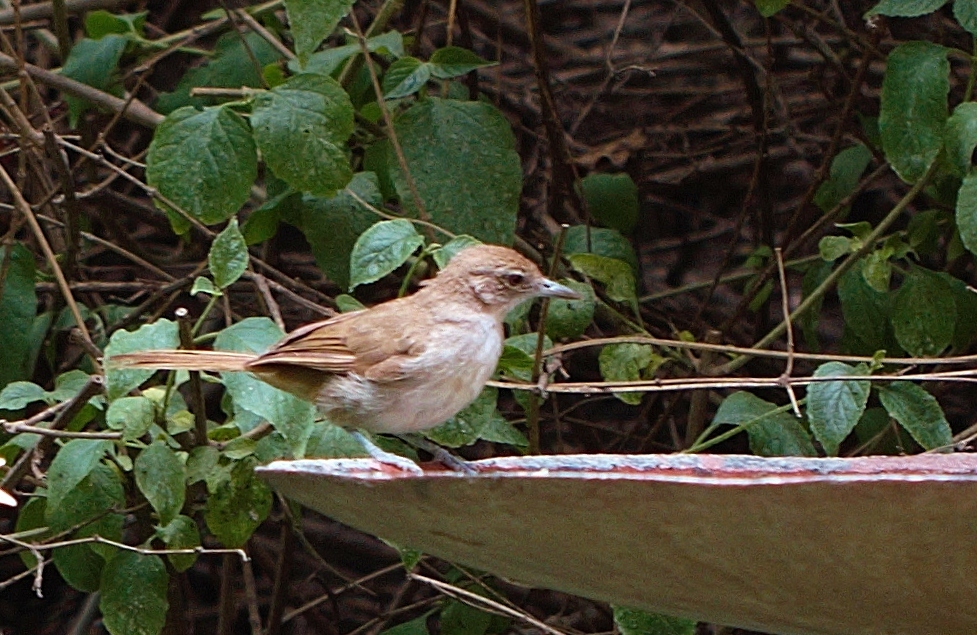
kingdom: Animalia
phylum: Chordata
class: Aves
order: Passeriformes
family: Pycnonotidae
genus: Phyllastrephus
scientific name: Phyllastrephus terrestris
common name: Terrestrial brownbul
